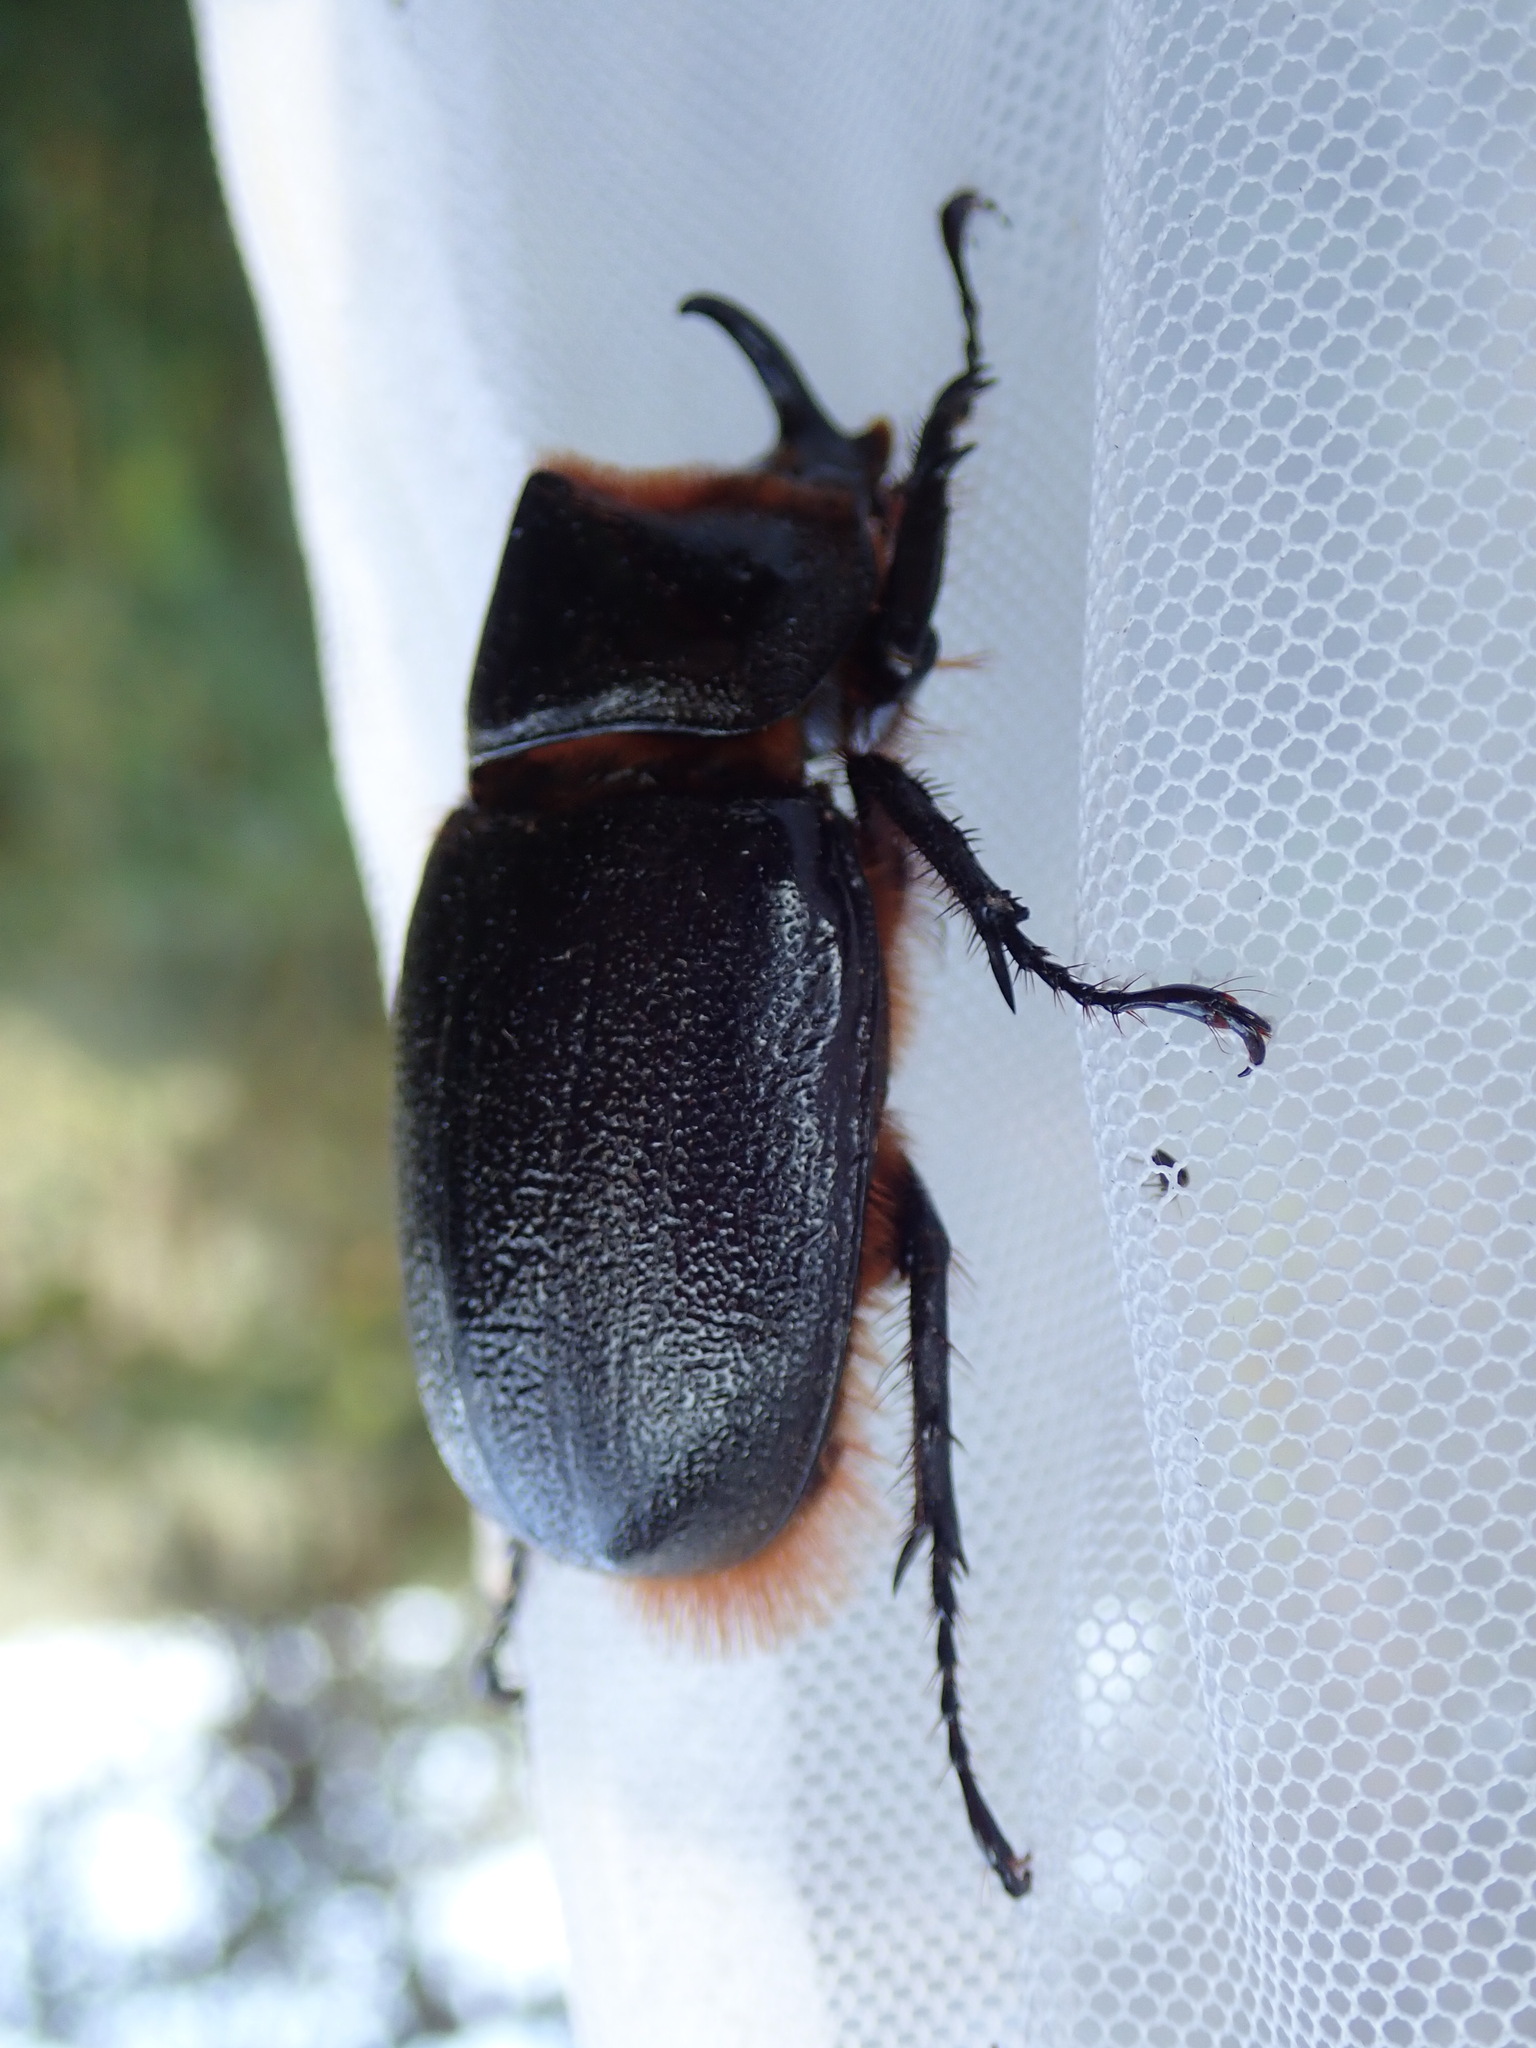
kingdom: Animalia
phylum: Arthropoda
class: Insecta
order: Coleoptera
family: Scarabaeidae
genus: Heterogomphus
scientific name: Heterogomphus schoenherri
